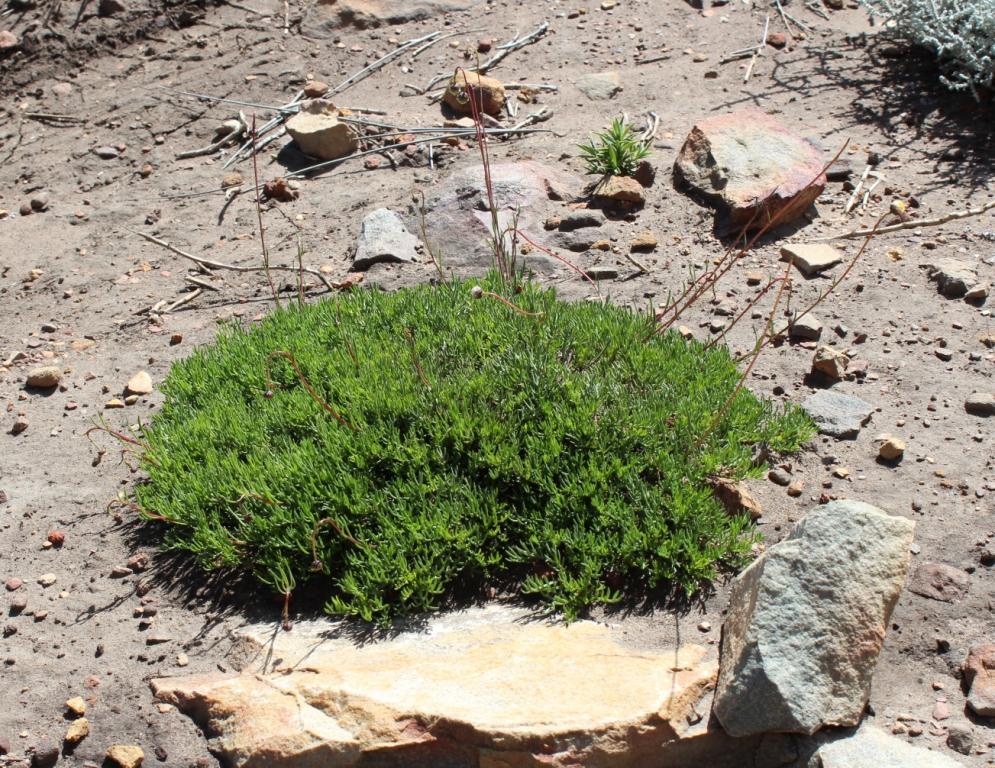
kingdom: Plantae
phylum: Tracheophyta
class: Magnoliopsida
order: Asterales
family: Asteraceae
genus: Ursinia
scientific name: Ursinia nudicaulis
